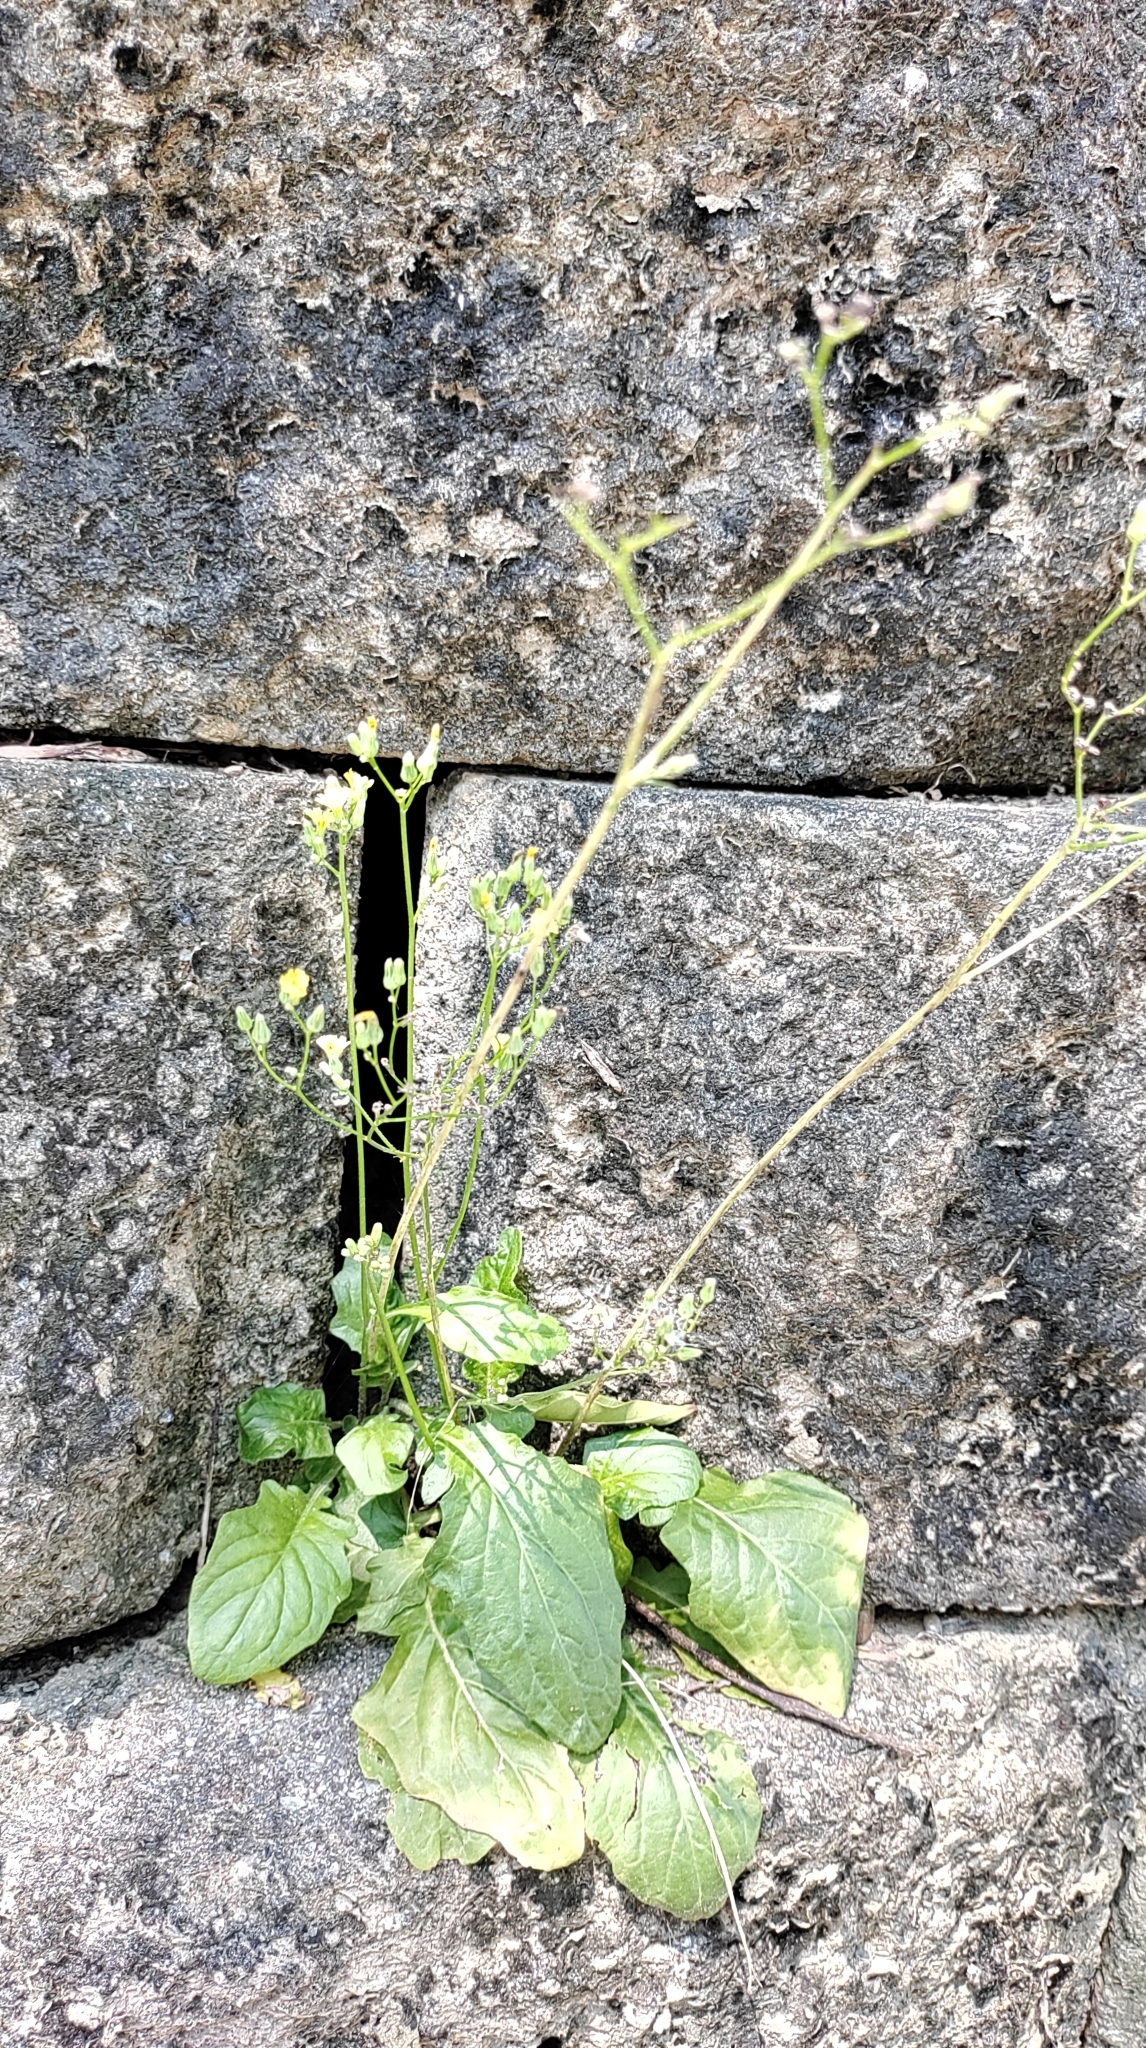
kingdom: Plantae
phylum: Tracheophyta
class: Magnoliopsida
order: Asterales
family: Asteraceae
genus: Youngia
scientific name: Youngia japonica
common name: Oriental false hawksbeard
